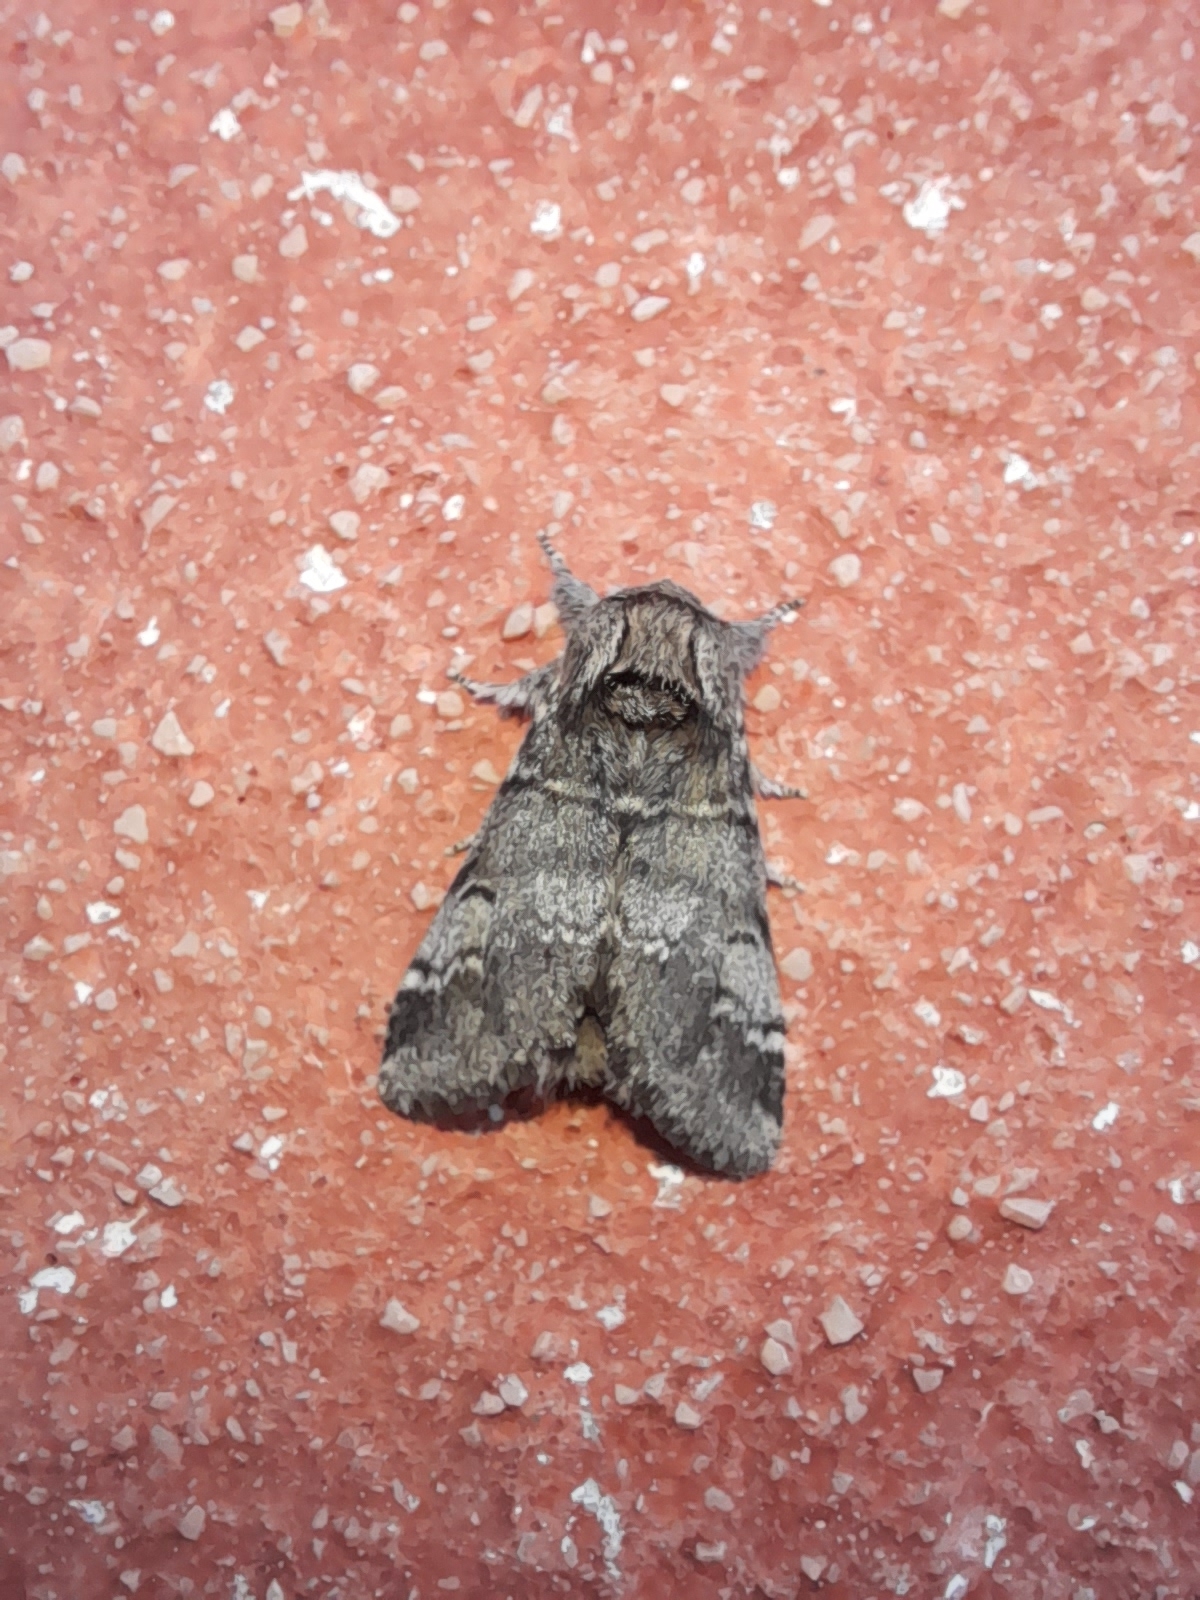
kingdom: Animalia
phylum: Arthropoda
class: Insecta
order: Lepidoptera
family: Notodontidae
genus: Drymonia
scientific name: Drymonia ruficornis
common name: Lunar marbled brown
